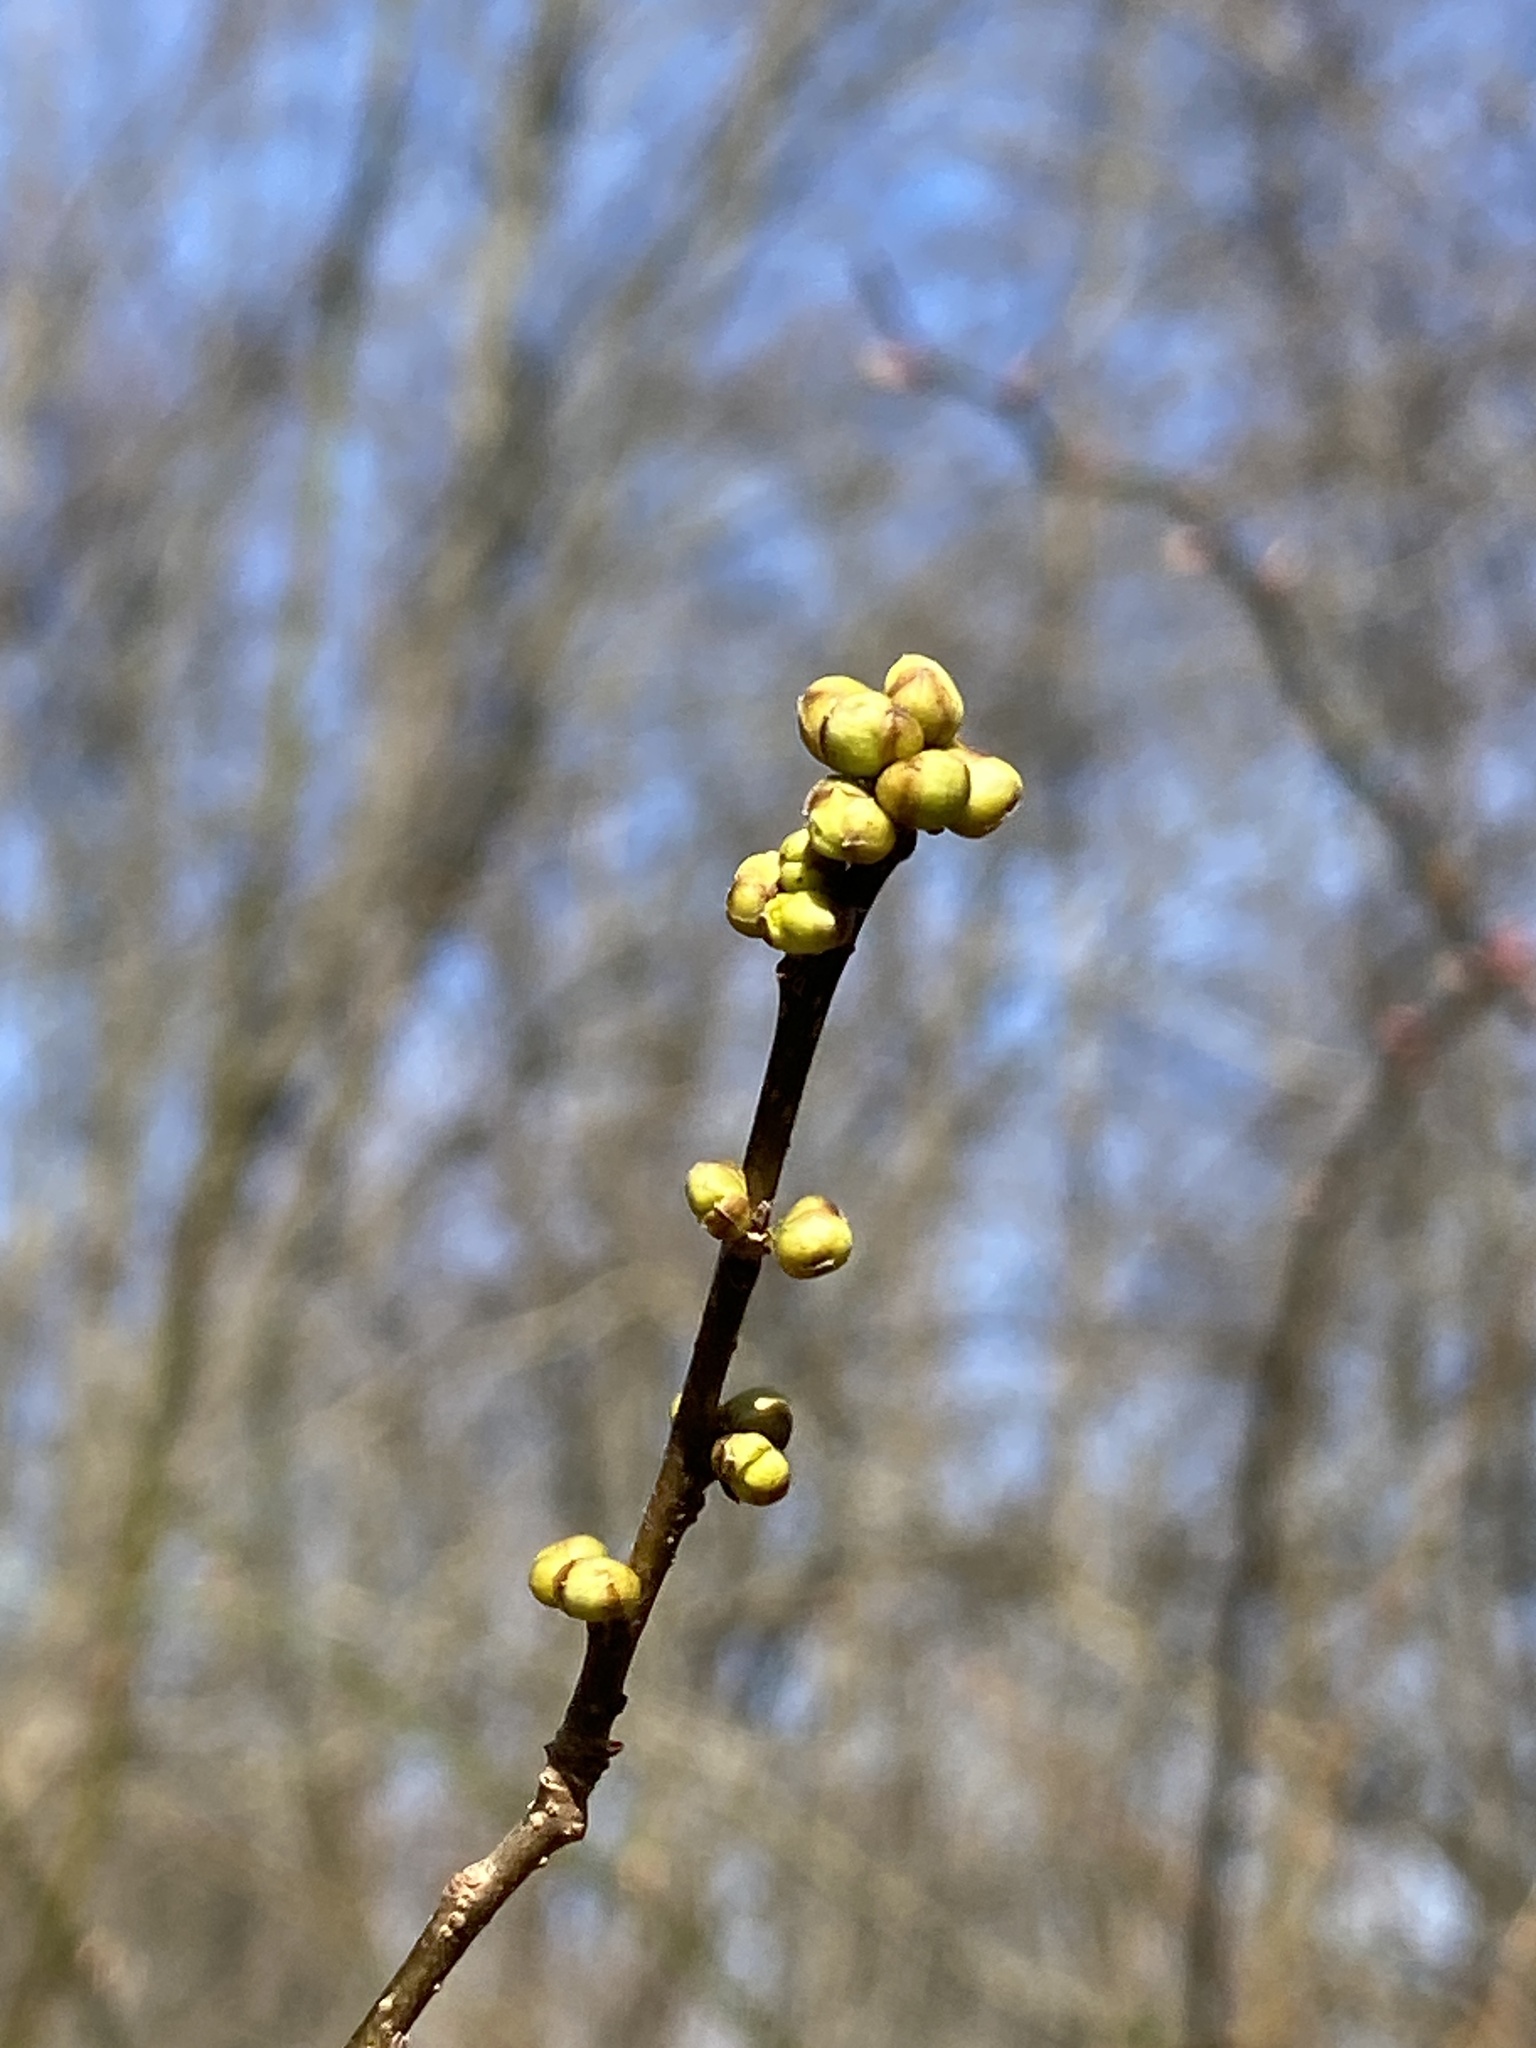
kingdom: Plantae
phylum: Tracheophyta
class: Magnoliopsida
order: Laurales
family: Lauraceae
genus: Lindera
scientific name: Lindera benzoin
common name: Spicebush
